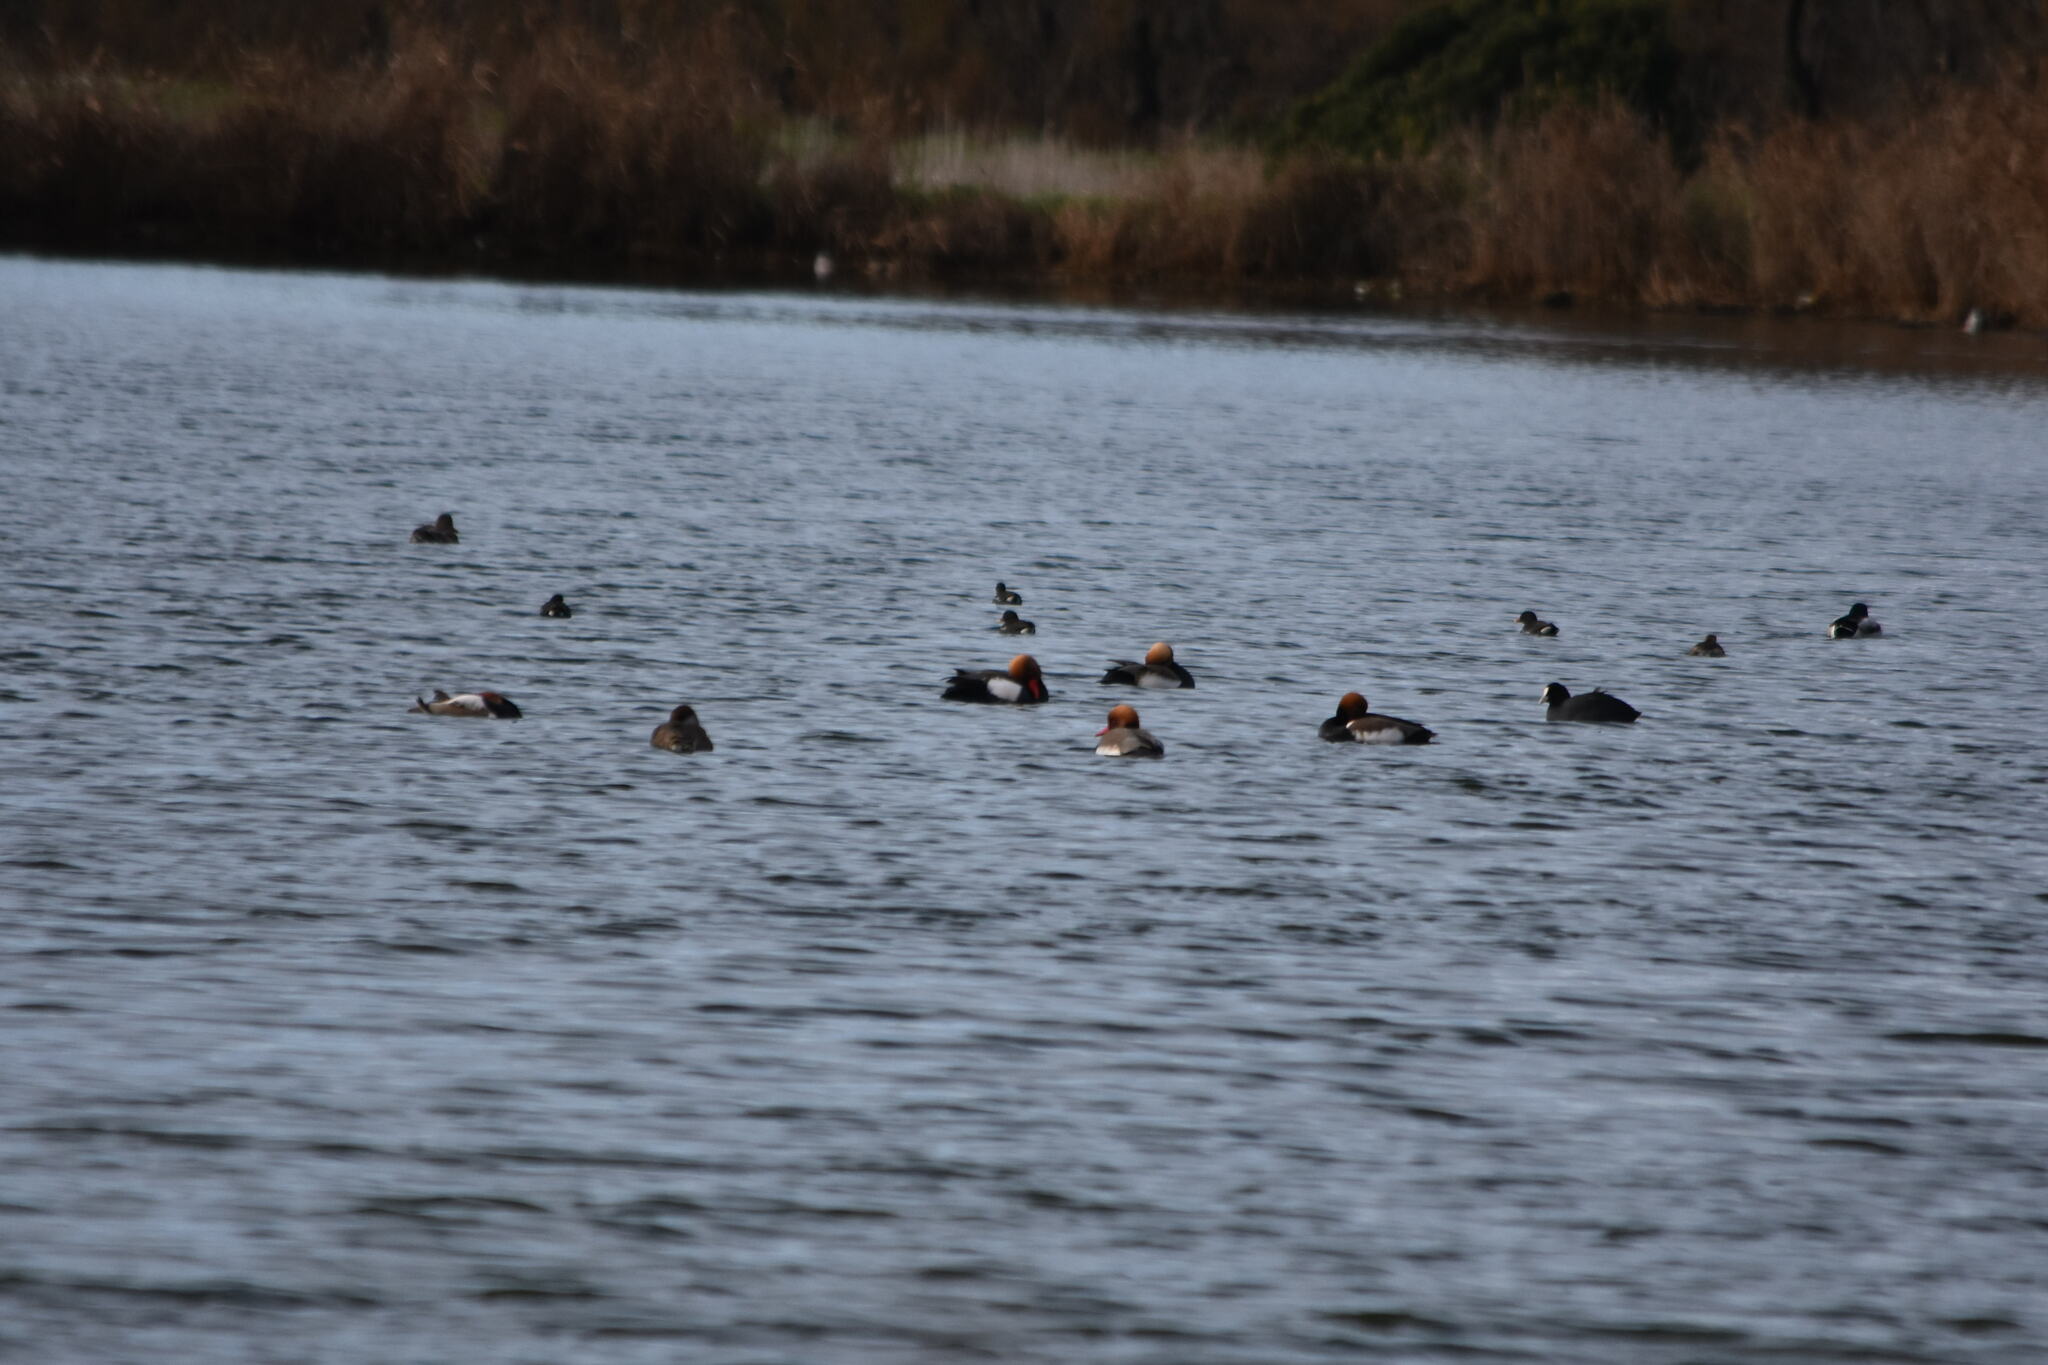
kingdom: Animalia
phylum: Chordata
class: Aves
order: Anseriformes
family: Anatidae
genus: Netta
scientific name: Netta rufina
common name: Red-crested pochard
